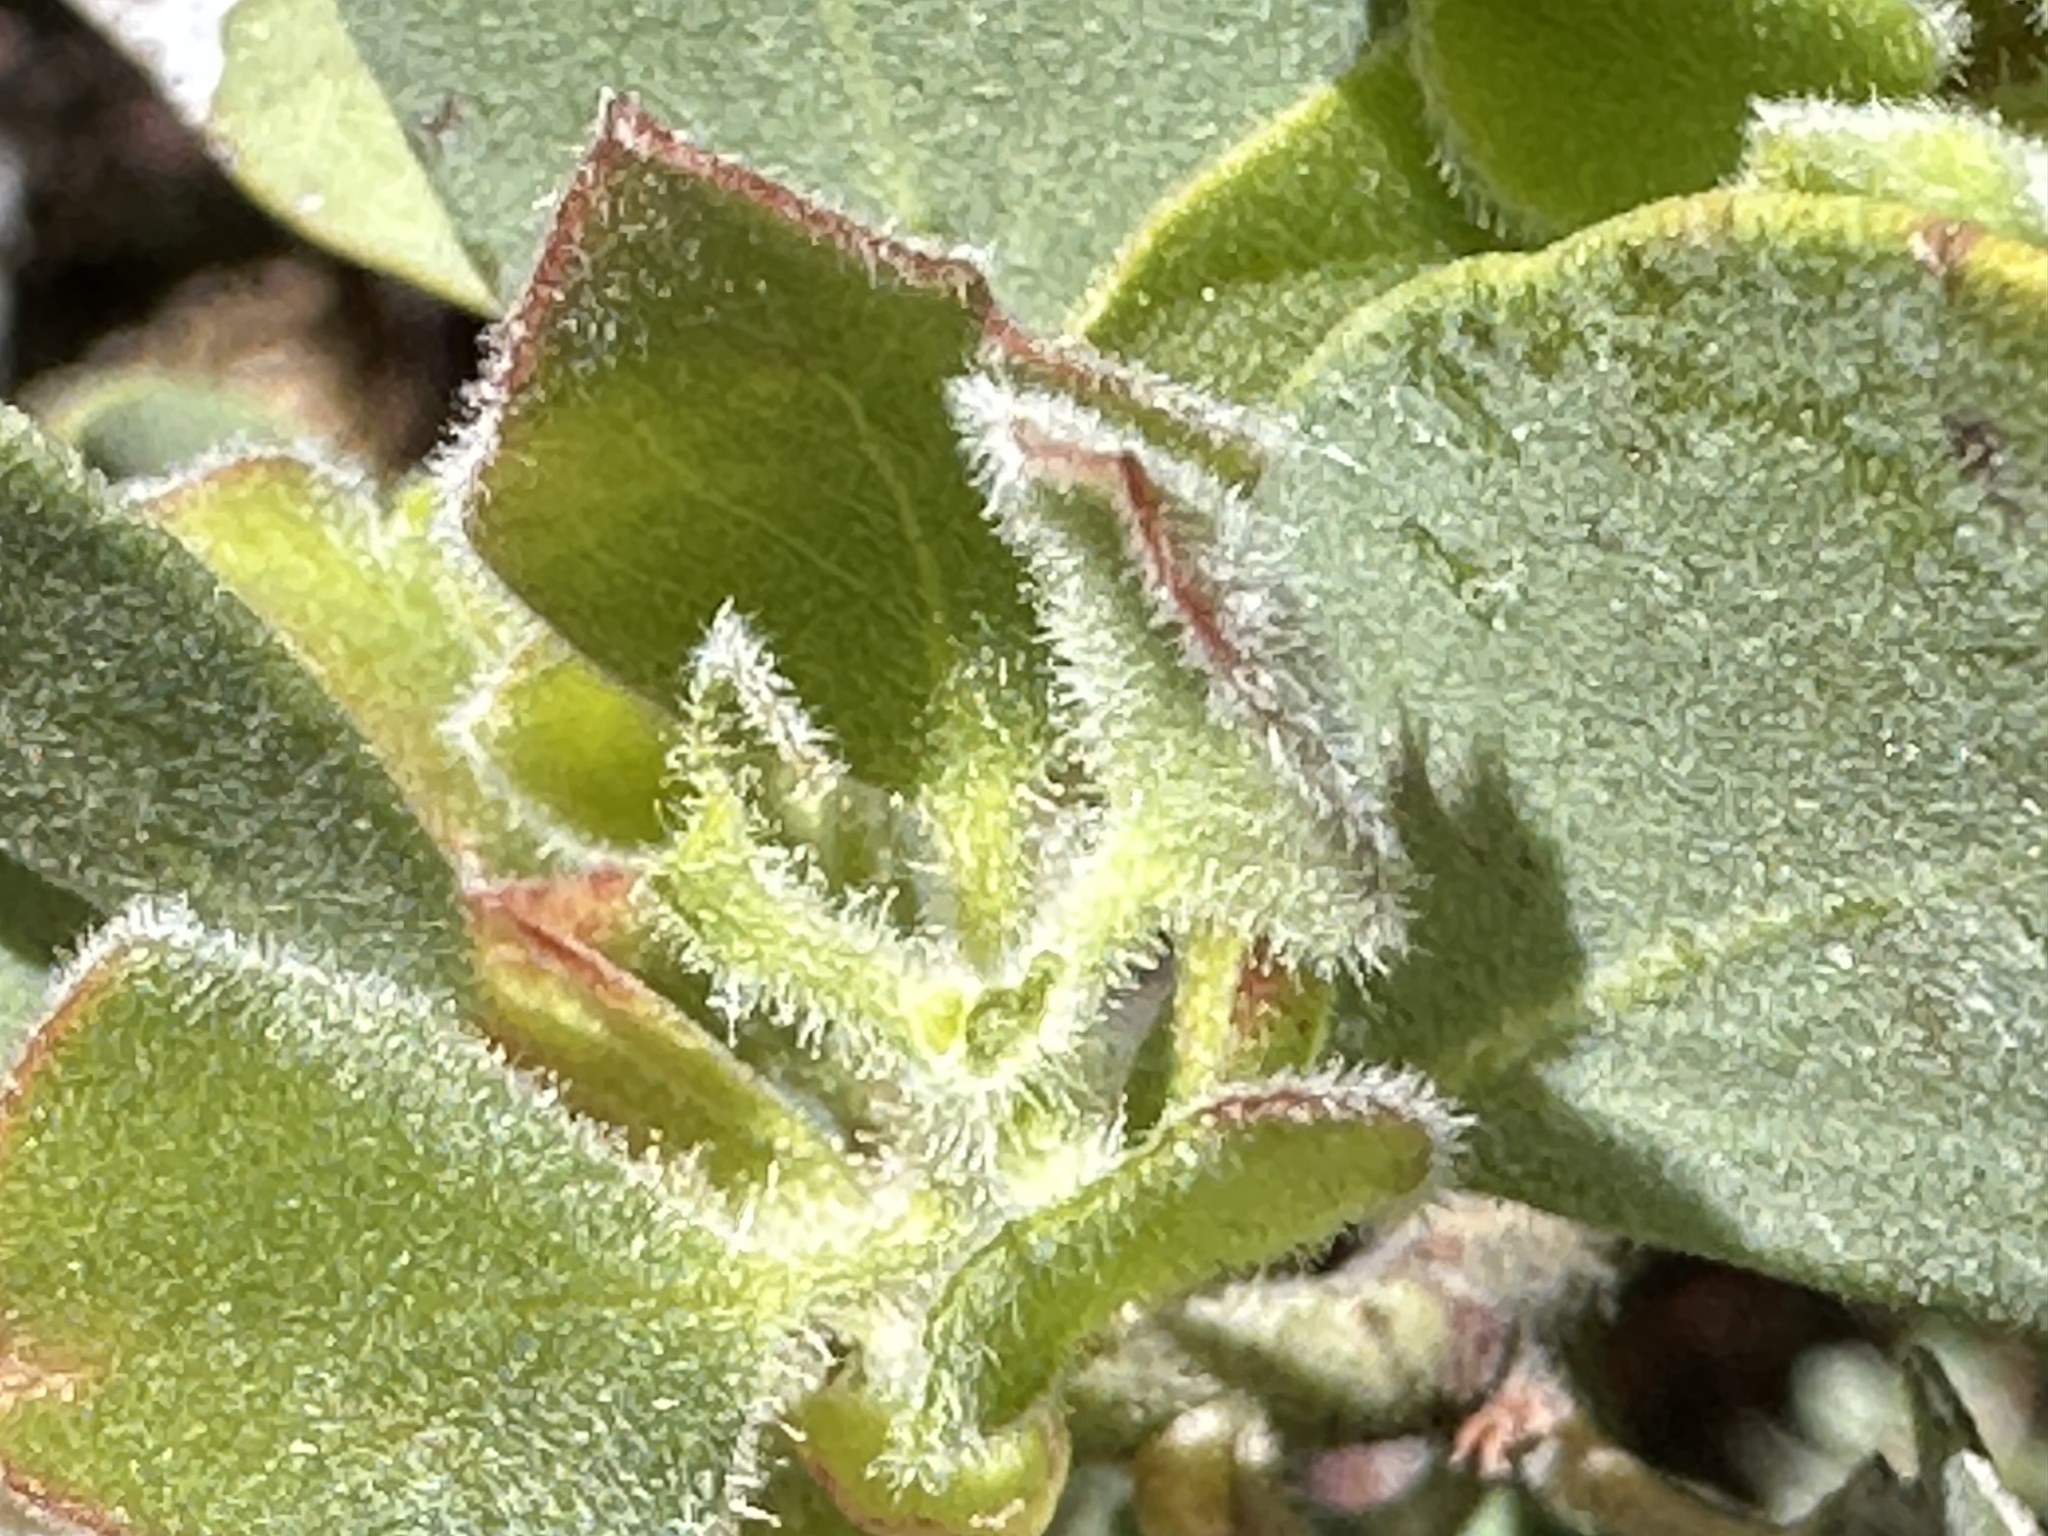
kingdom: Plantae
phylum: Tracheophyta
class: Magnoliopsida
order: Ericales
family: Ericaceae
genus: Arctostaphylos
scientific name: Arctostaphylos glandulosa
